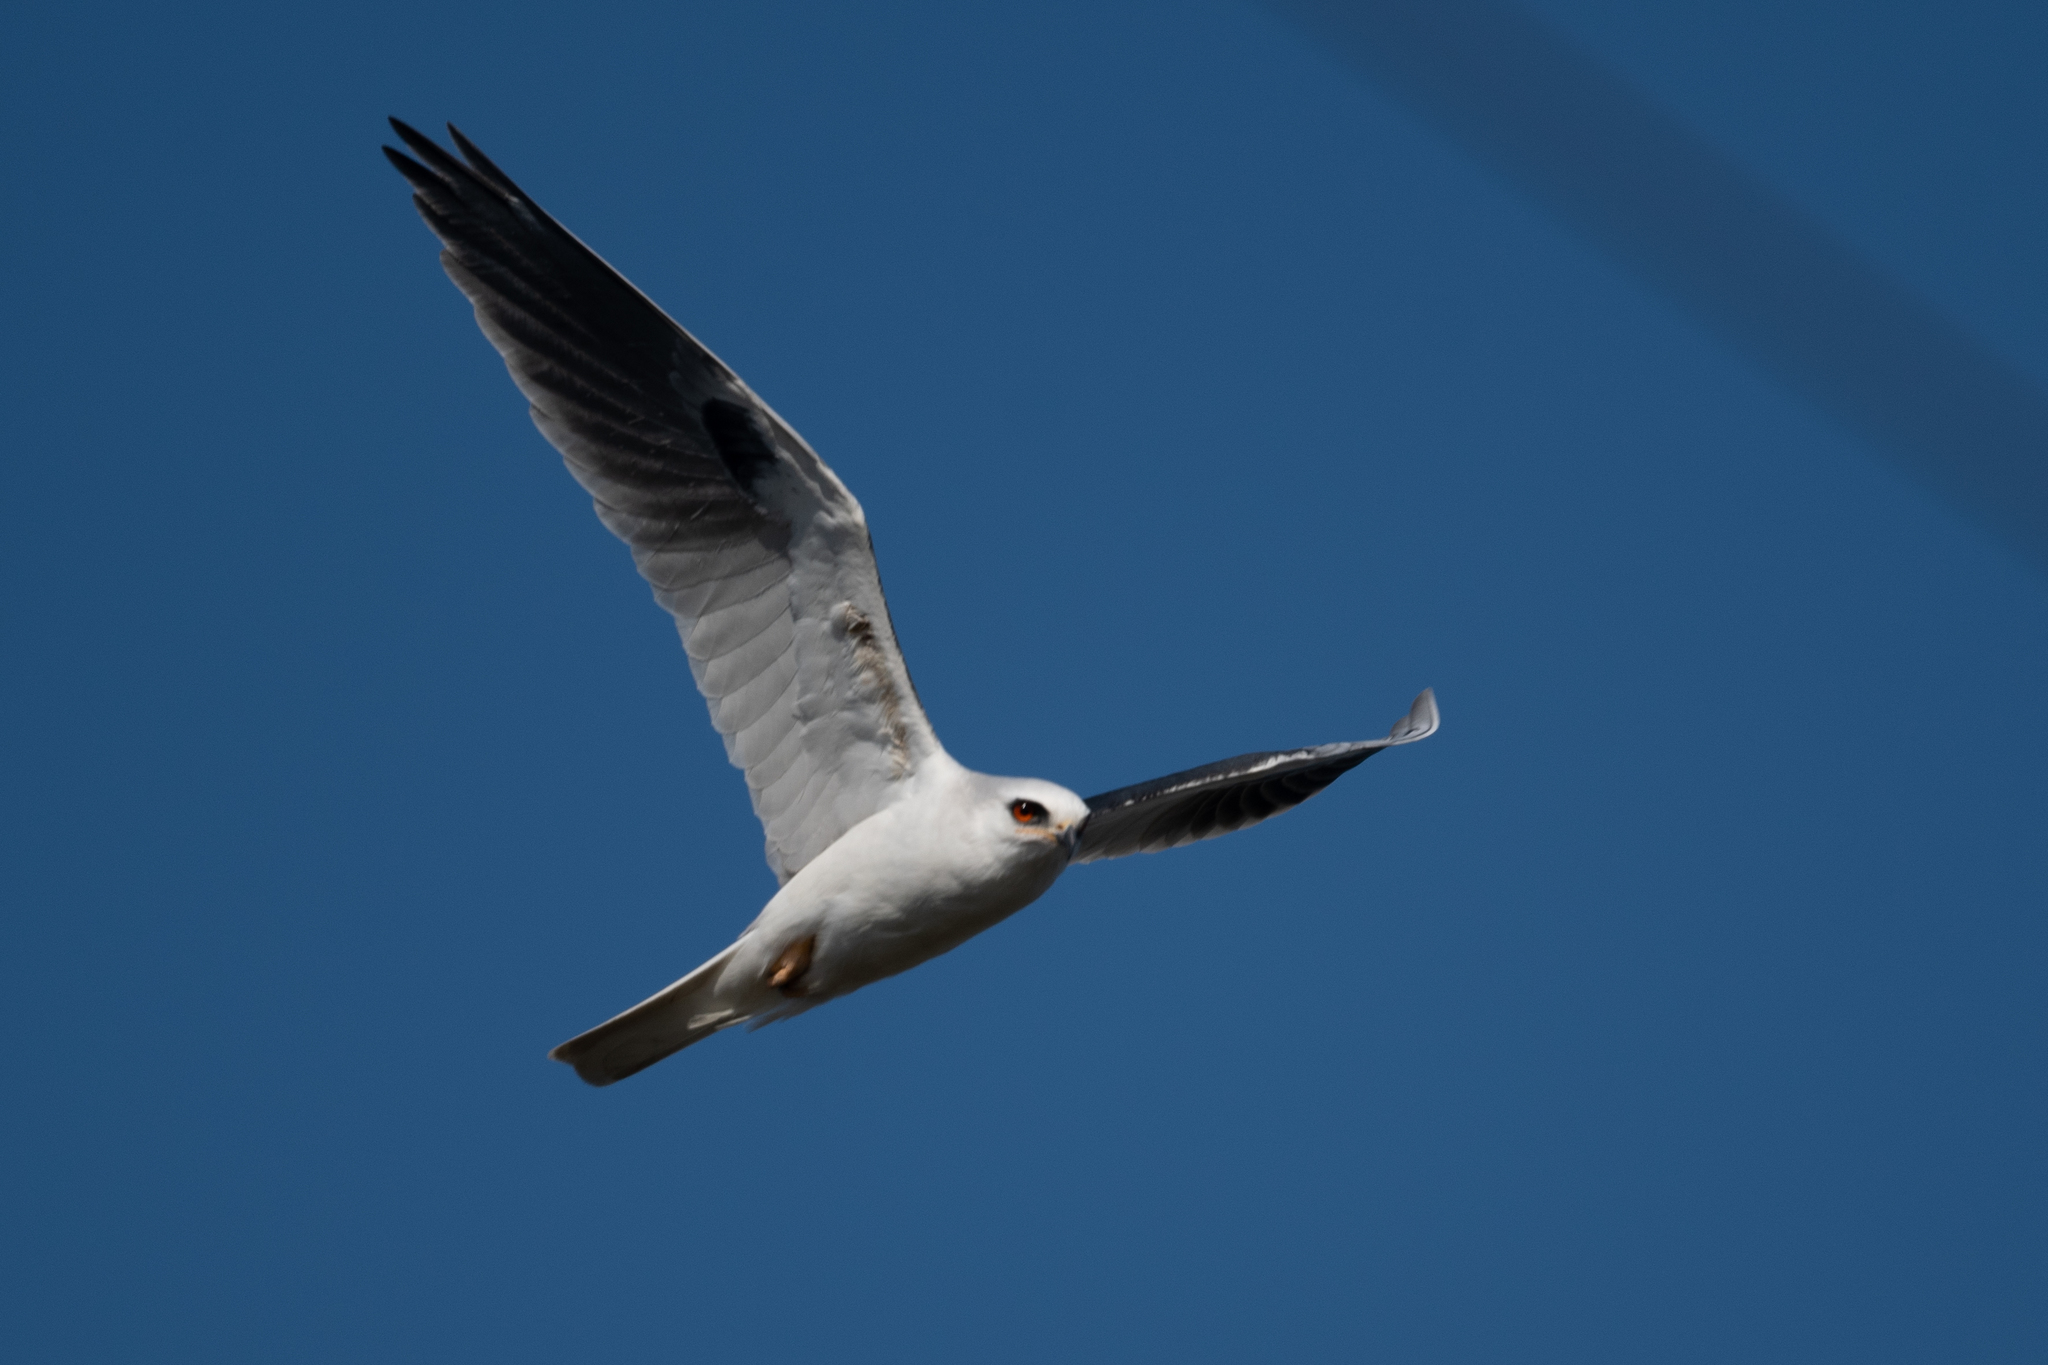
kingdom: Animalia
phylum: Chordata
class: Aves
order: Accipitriformes
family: Accipitridae
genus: Elanus
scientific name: Elanus leucurus
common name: White-tailed kite
